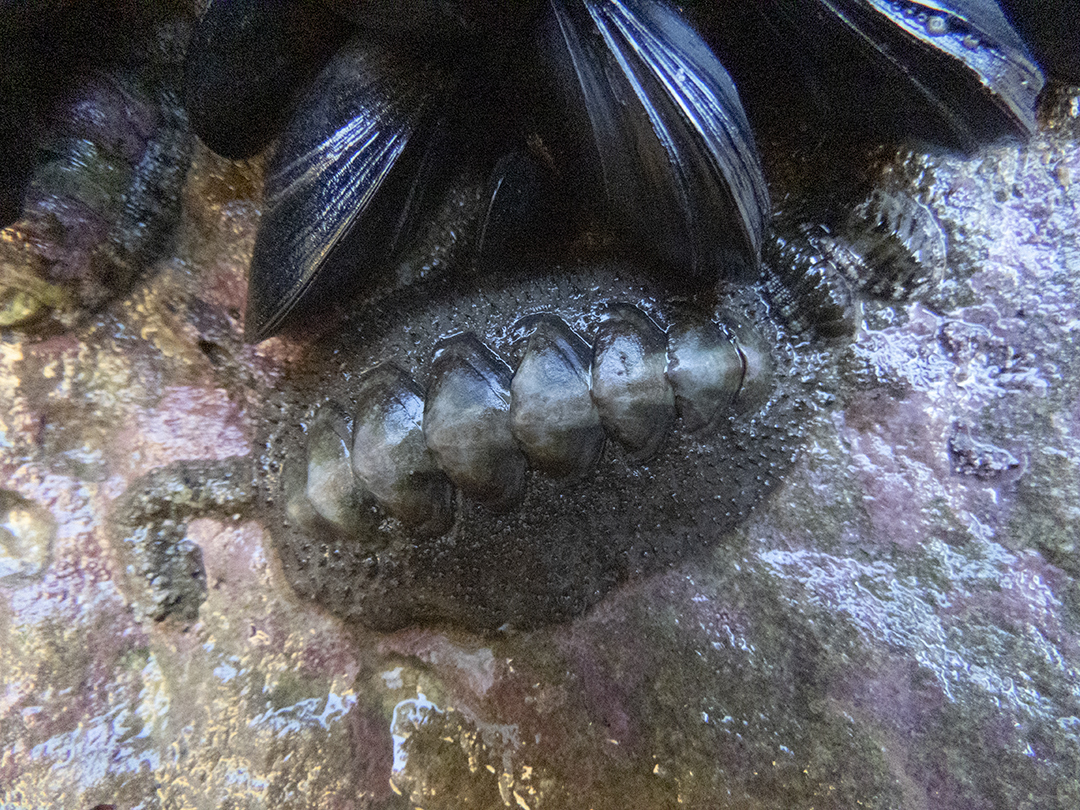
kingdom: Animalia
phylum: Mollusca
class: Polyplacophora
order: Chitonida
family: Mopaliidae
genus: Plaxiphora
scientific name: Plaxiphora obtecta
